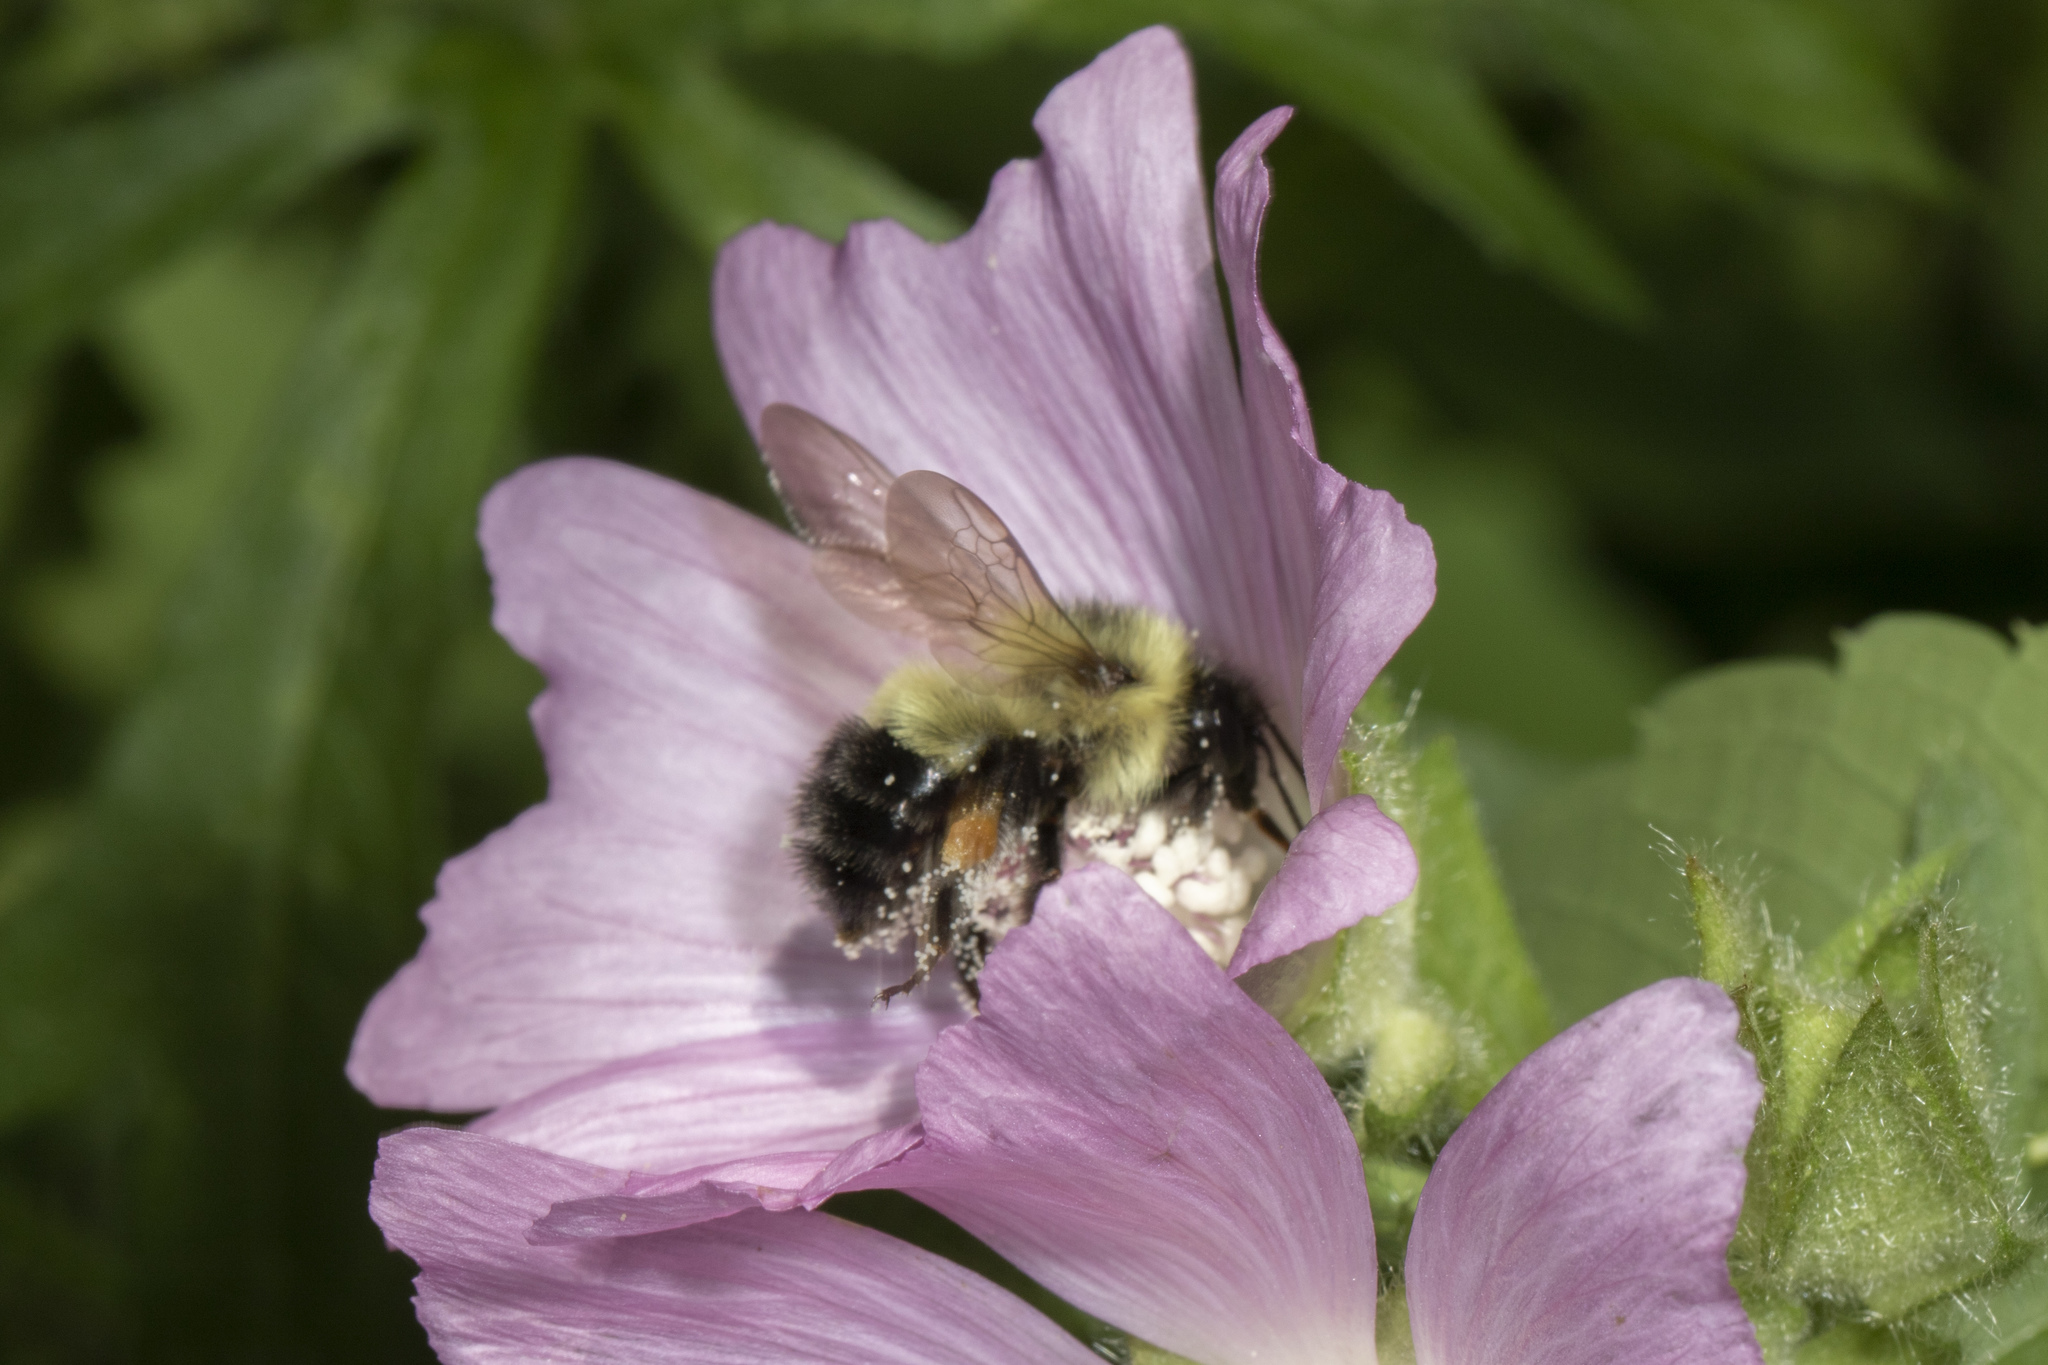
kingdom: Animalia
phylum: Arthropoda
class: Insecta
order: Hymenoptera
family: Apidae
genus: Pyrobombus
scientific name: Pyrobombus
